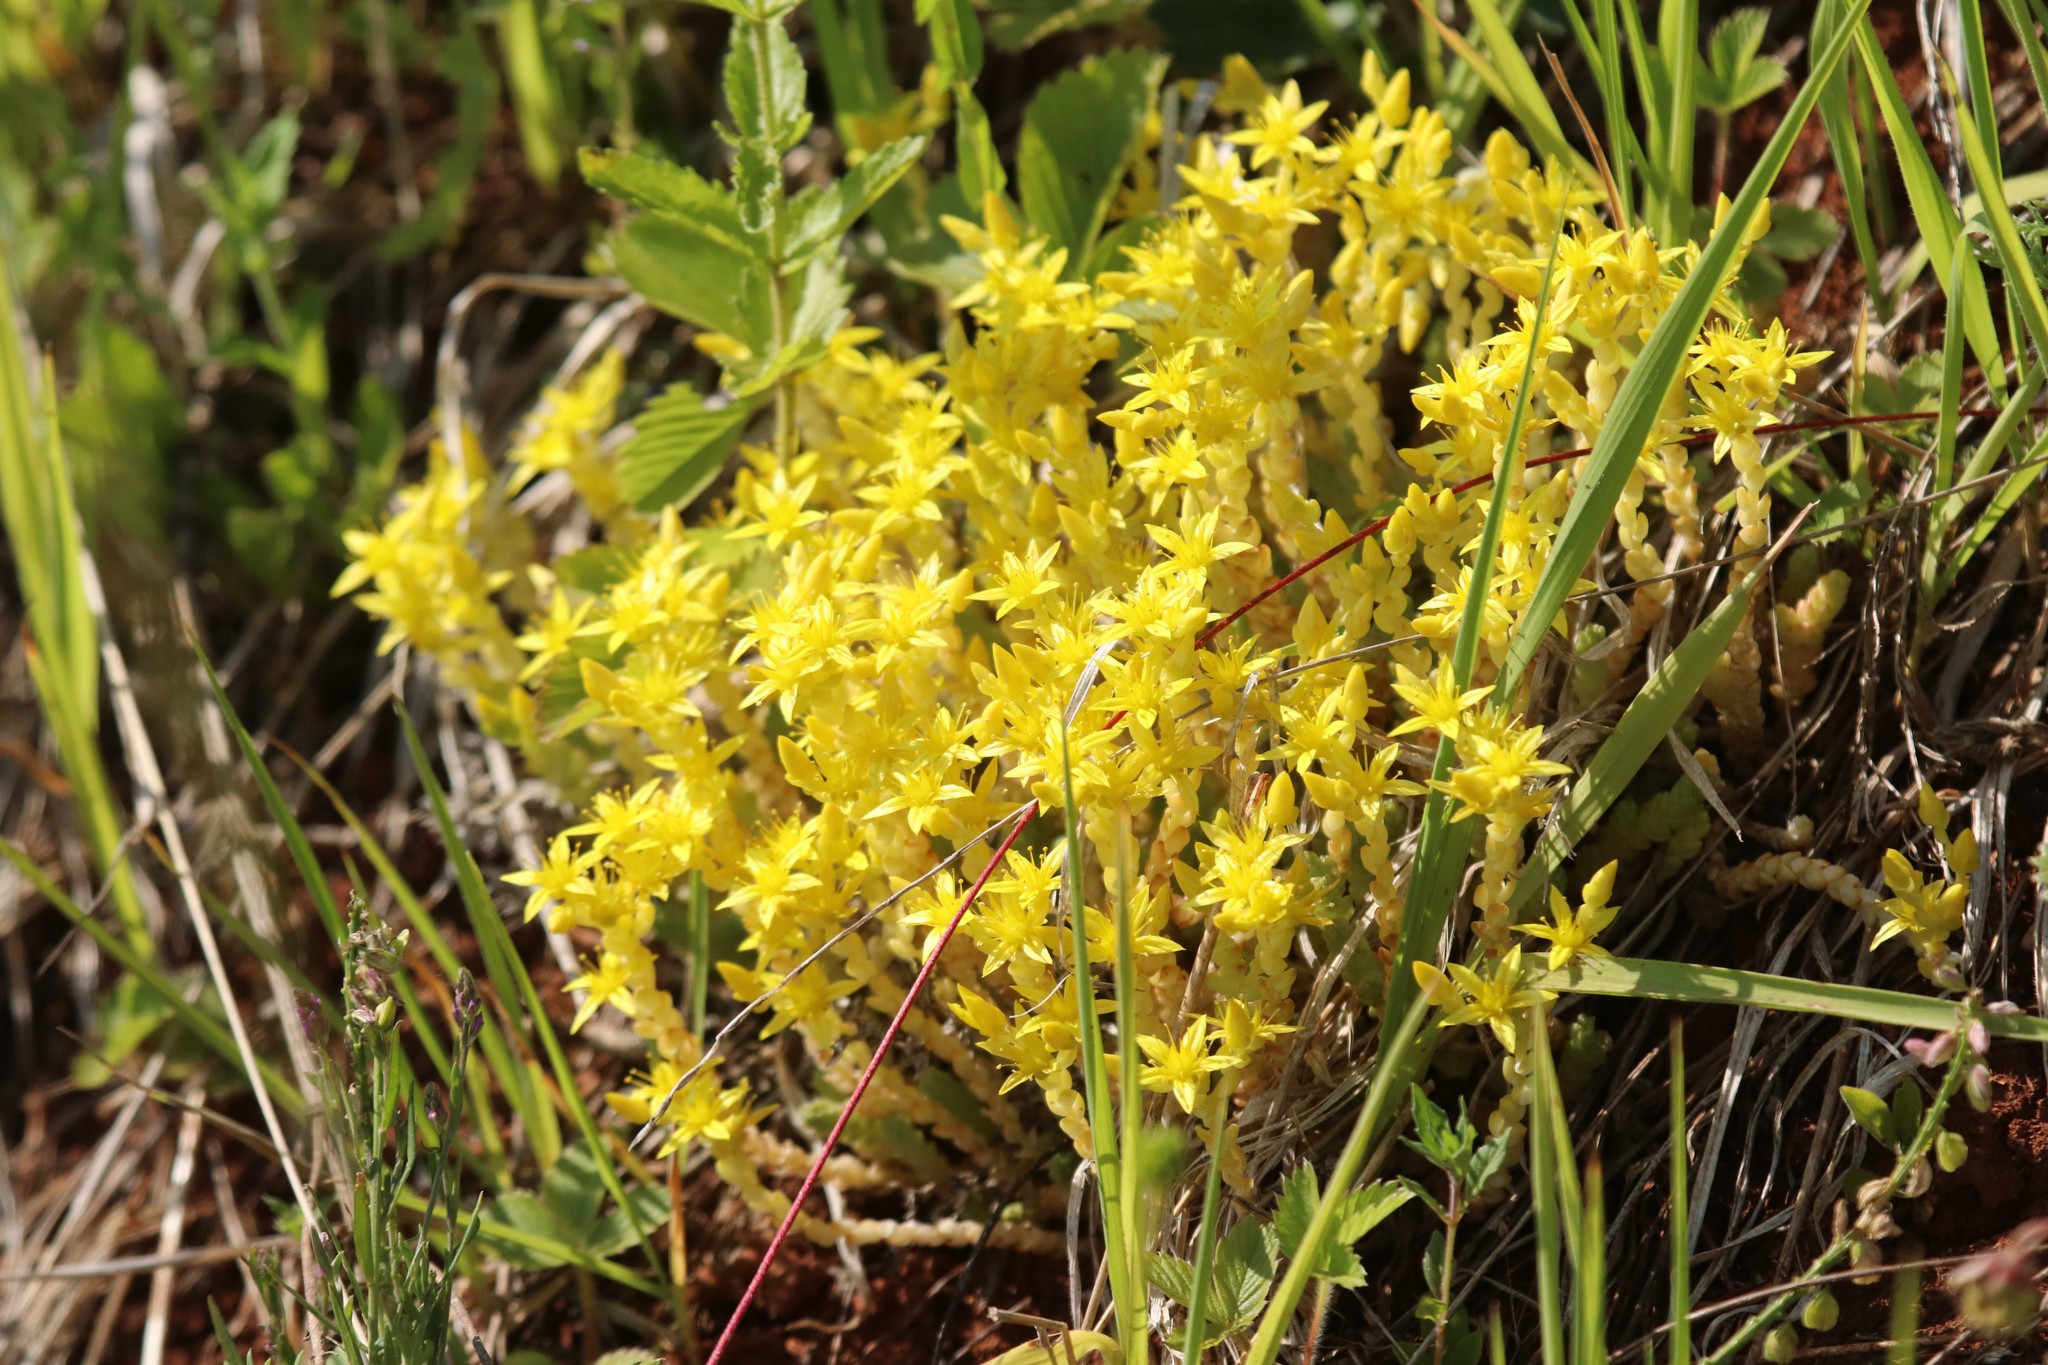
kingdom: Plantae
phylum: Tracheophyta
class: Magnoliopsida
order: Saxifragales
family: Crassulaceae
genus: Sedum
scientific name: Sedum acre
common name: Biting stonecrop
